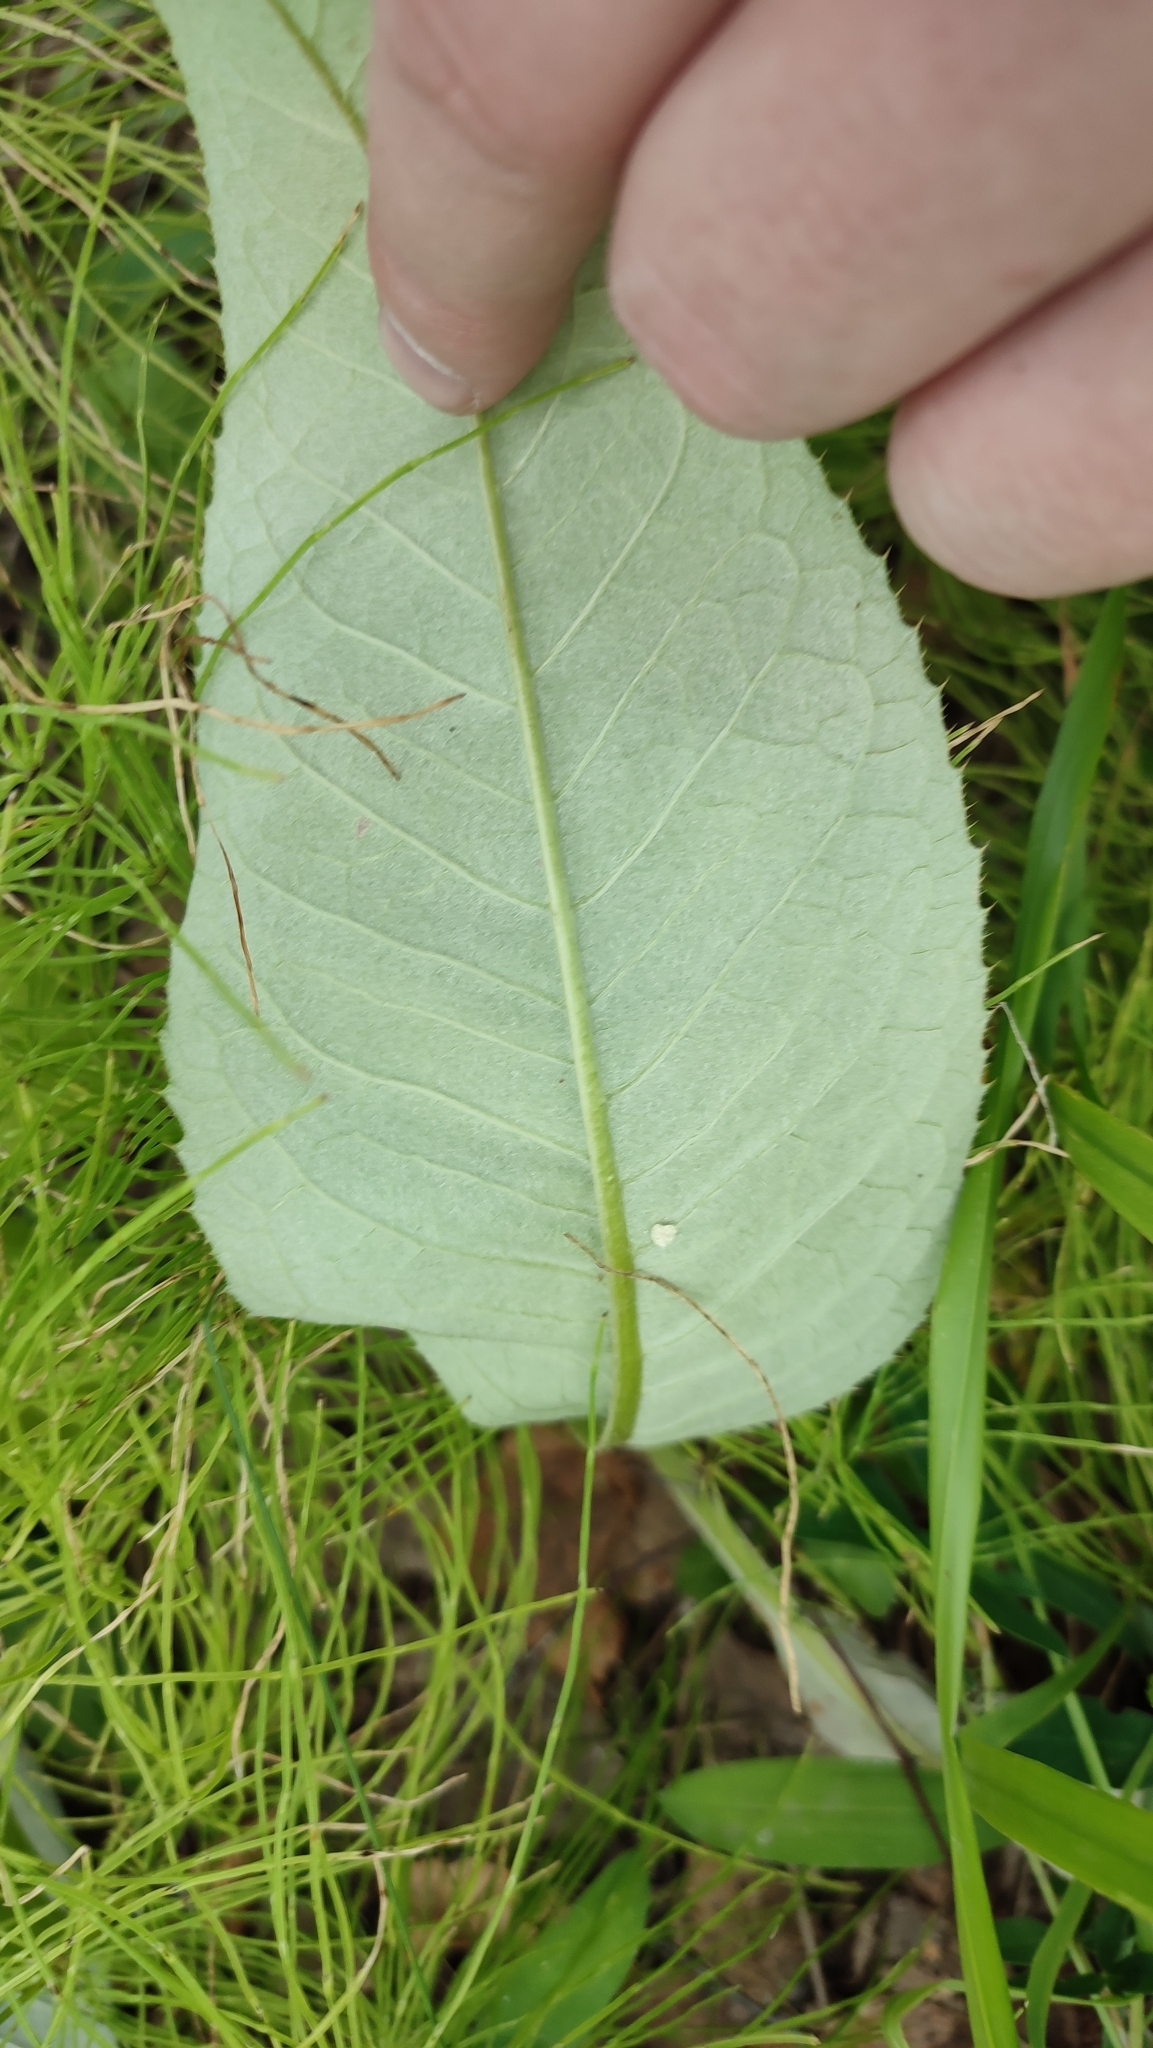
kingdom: Plantae
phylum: Tracheophyta
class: Magnoliopsida
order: Asterales
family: Asteraceae
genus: Cirsium
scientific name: Cirsium heterophyllum
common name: Melancholy thistle
